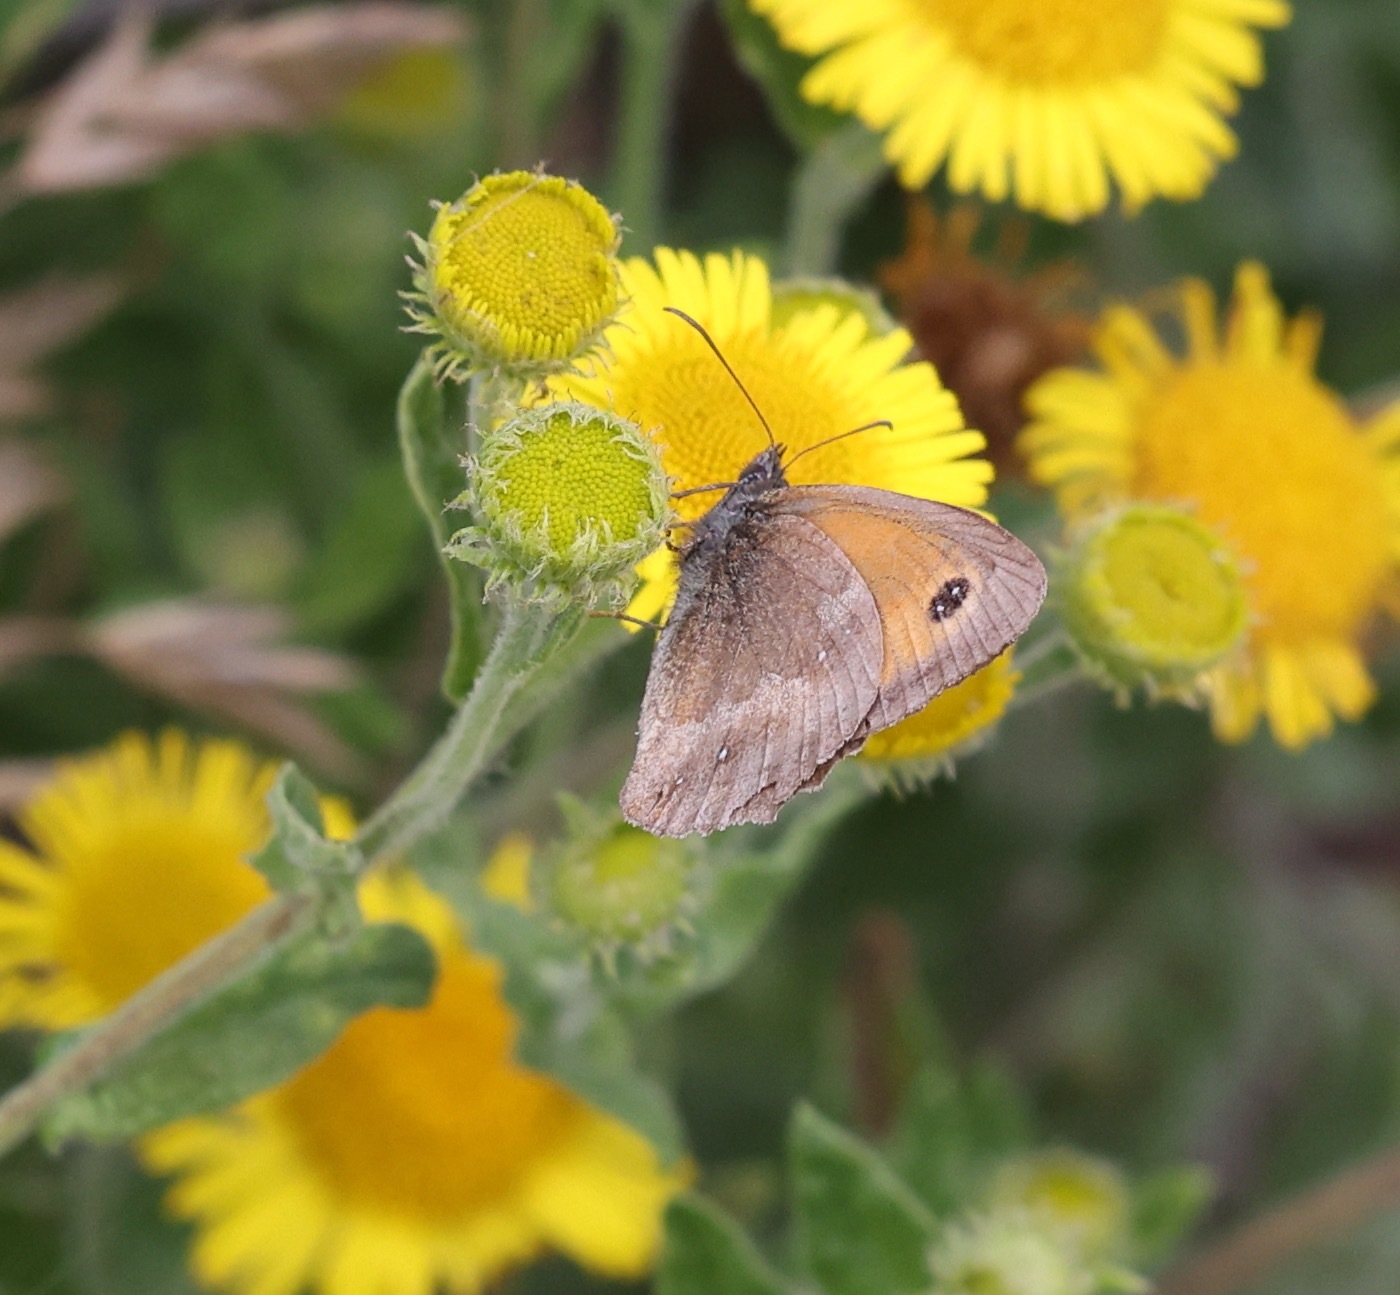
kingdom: Animalia
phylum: Arthropoda
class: Insecta
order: Lepidoptera
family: Nymphalidae
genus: Pyronia
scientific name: Pyronia tithonus
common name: Gatekeeper
